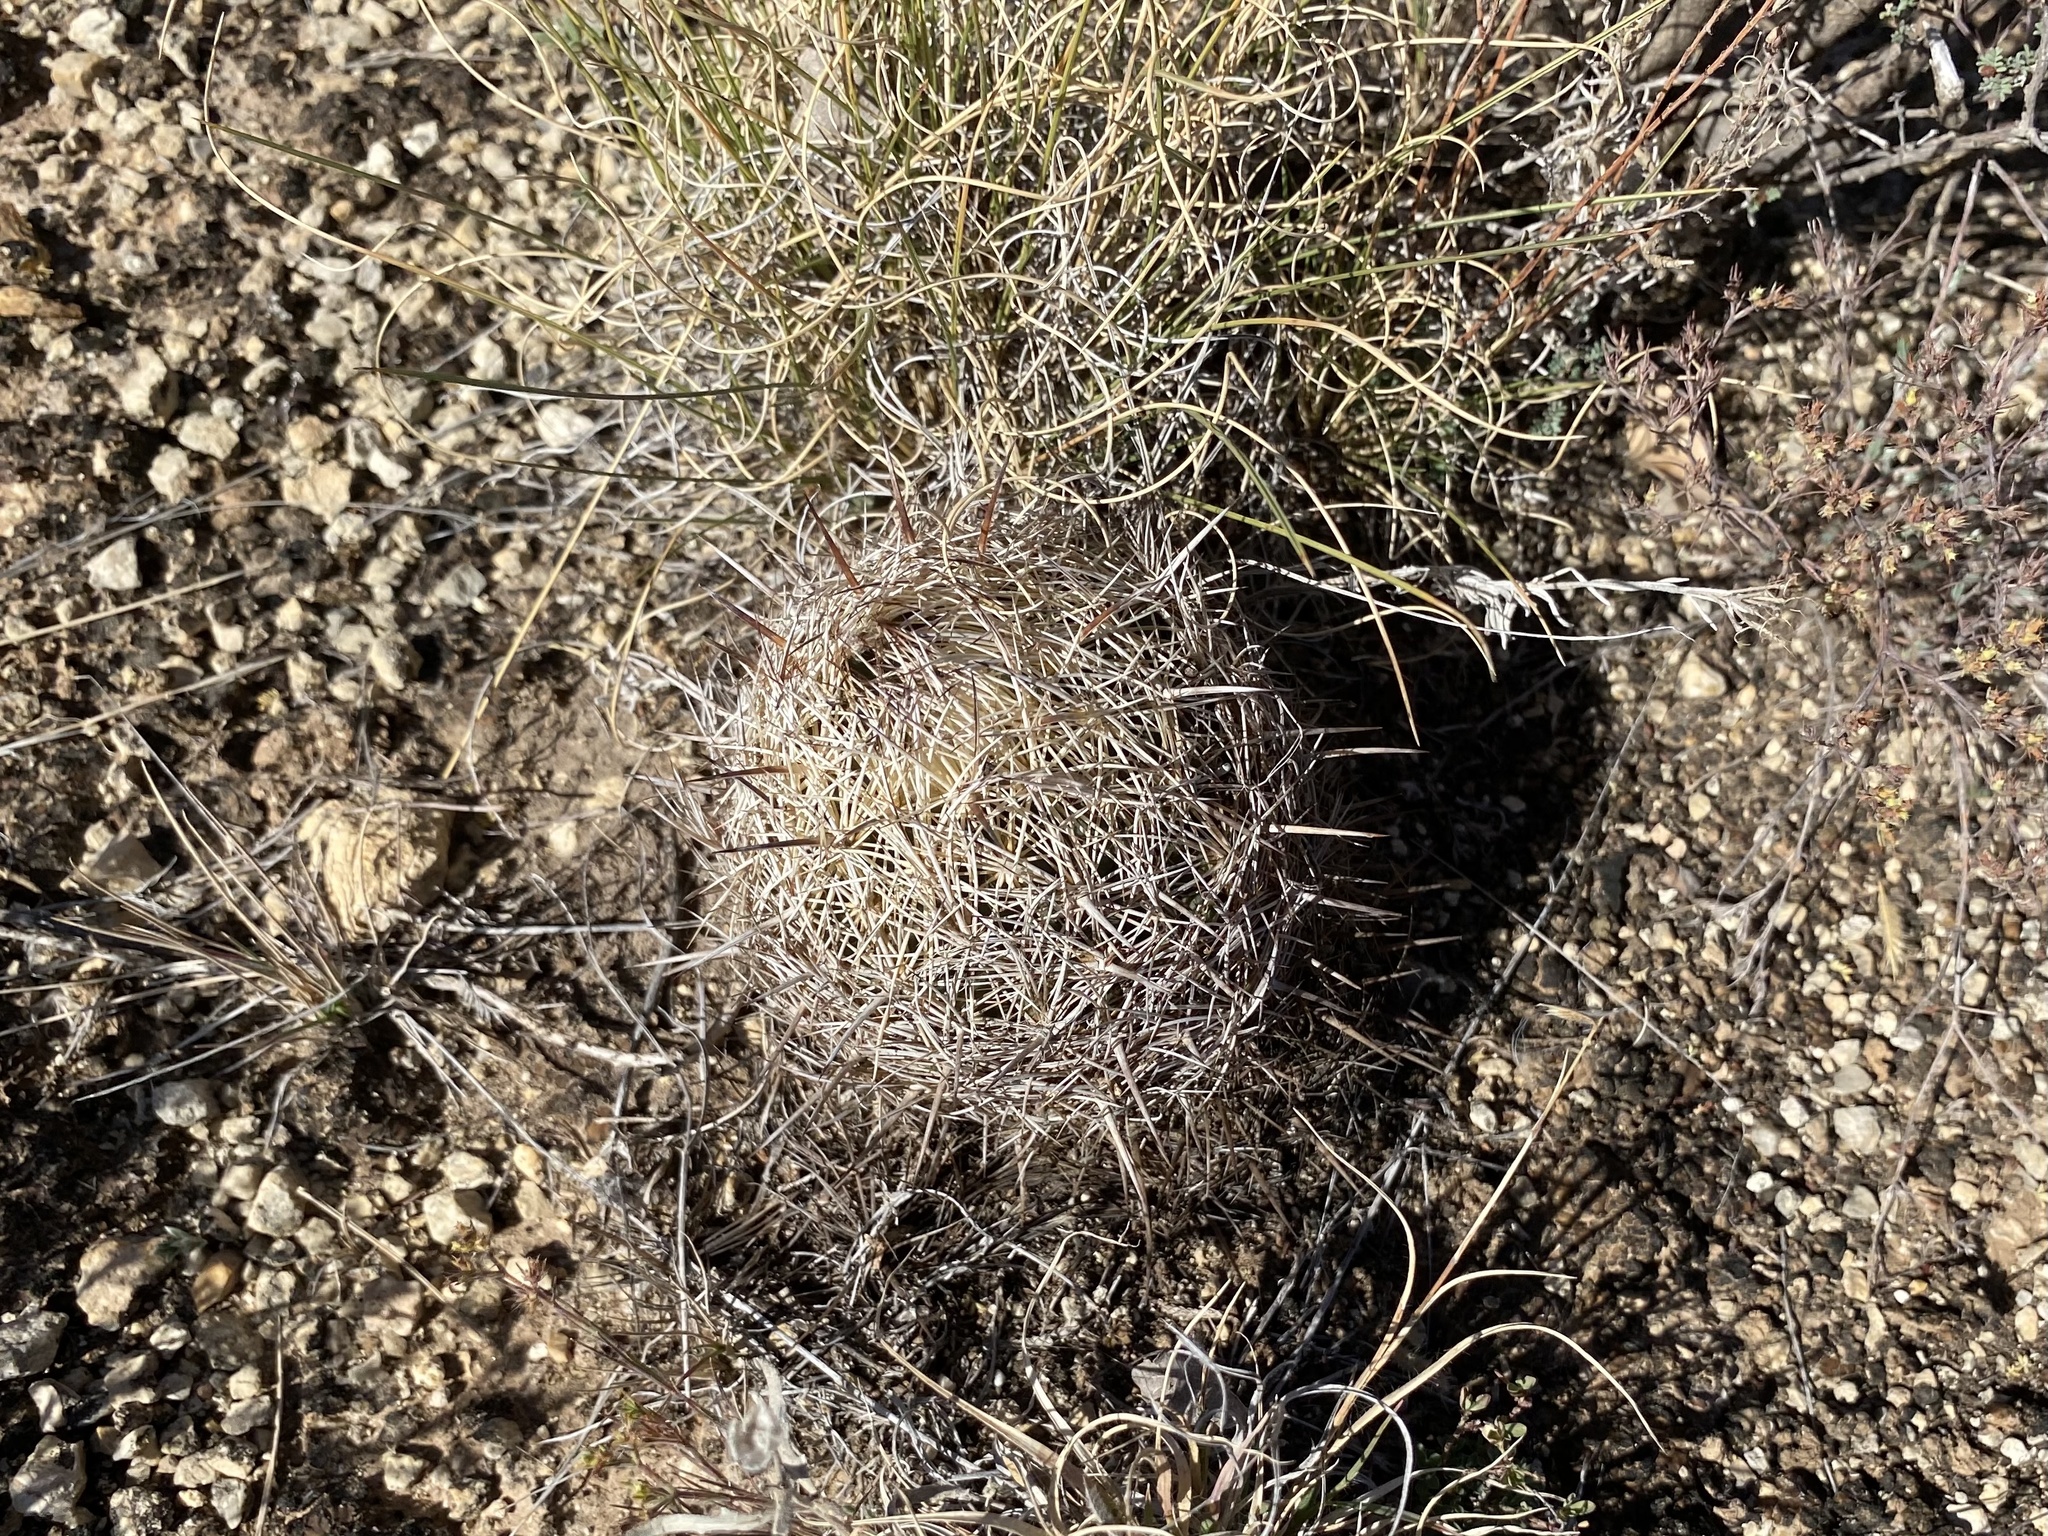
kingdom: Plantae
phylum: Tracheophyta
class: Magnoliopsida
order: Caryophyllales
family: Cactaceae
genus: Coryphantha
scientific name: Coryphantha echinus
